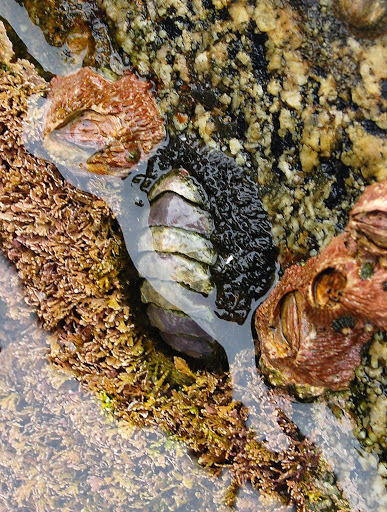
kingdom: Animalia
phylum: Mollusca
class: Polyplacophora
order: Chitonida
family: Mopaliidae
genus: Mopalia
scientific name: Mopalia muscosa
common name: Mossy chiton
